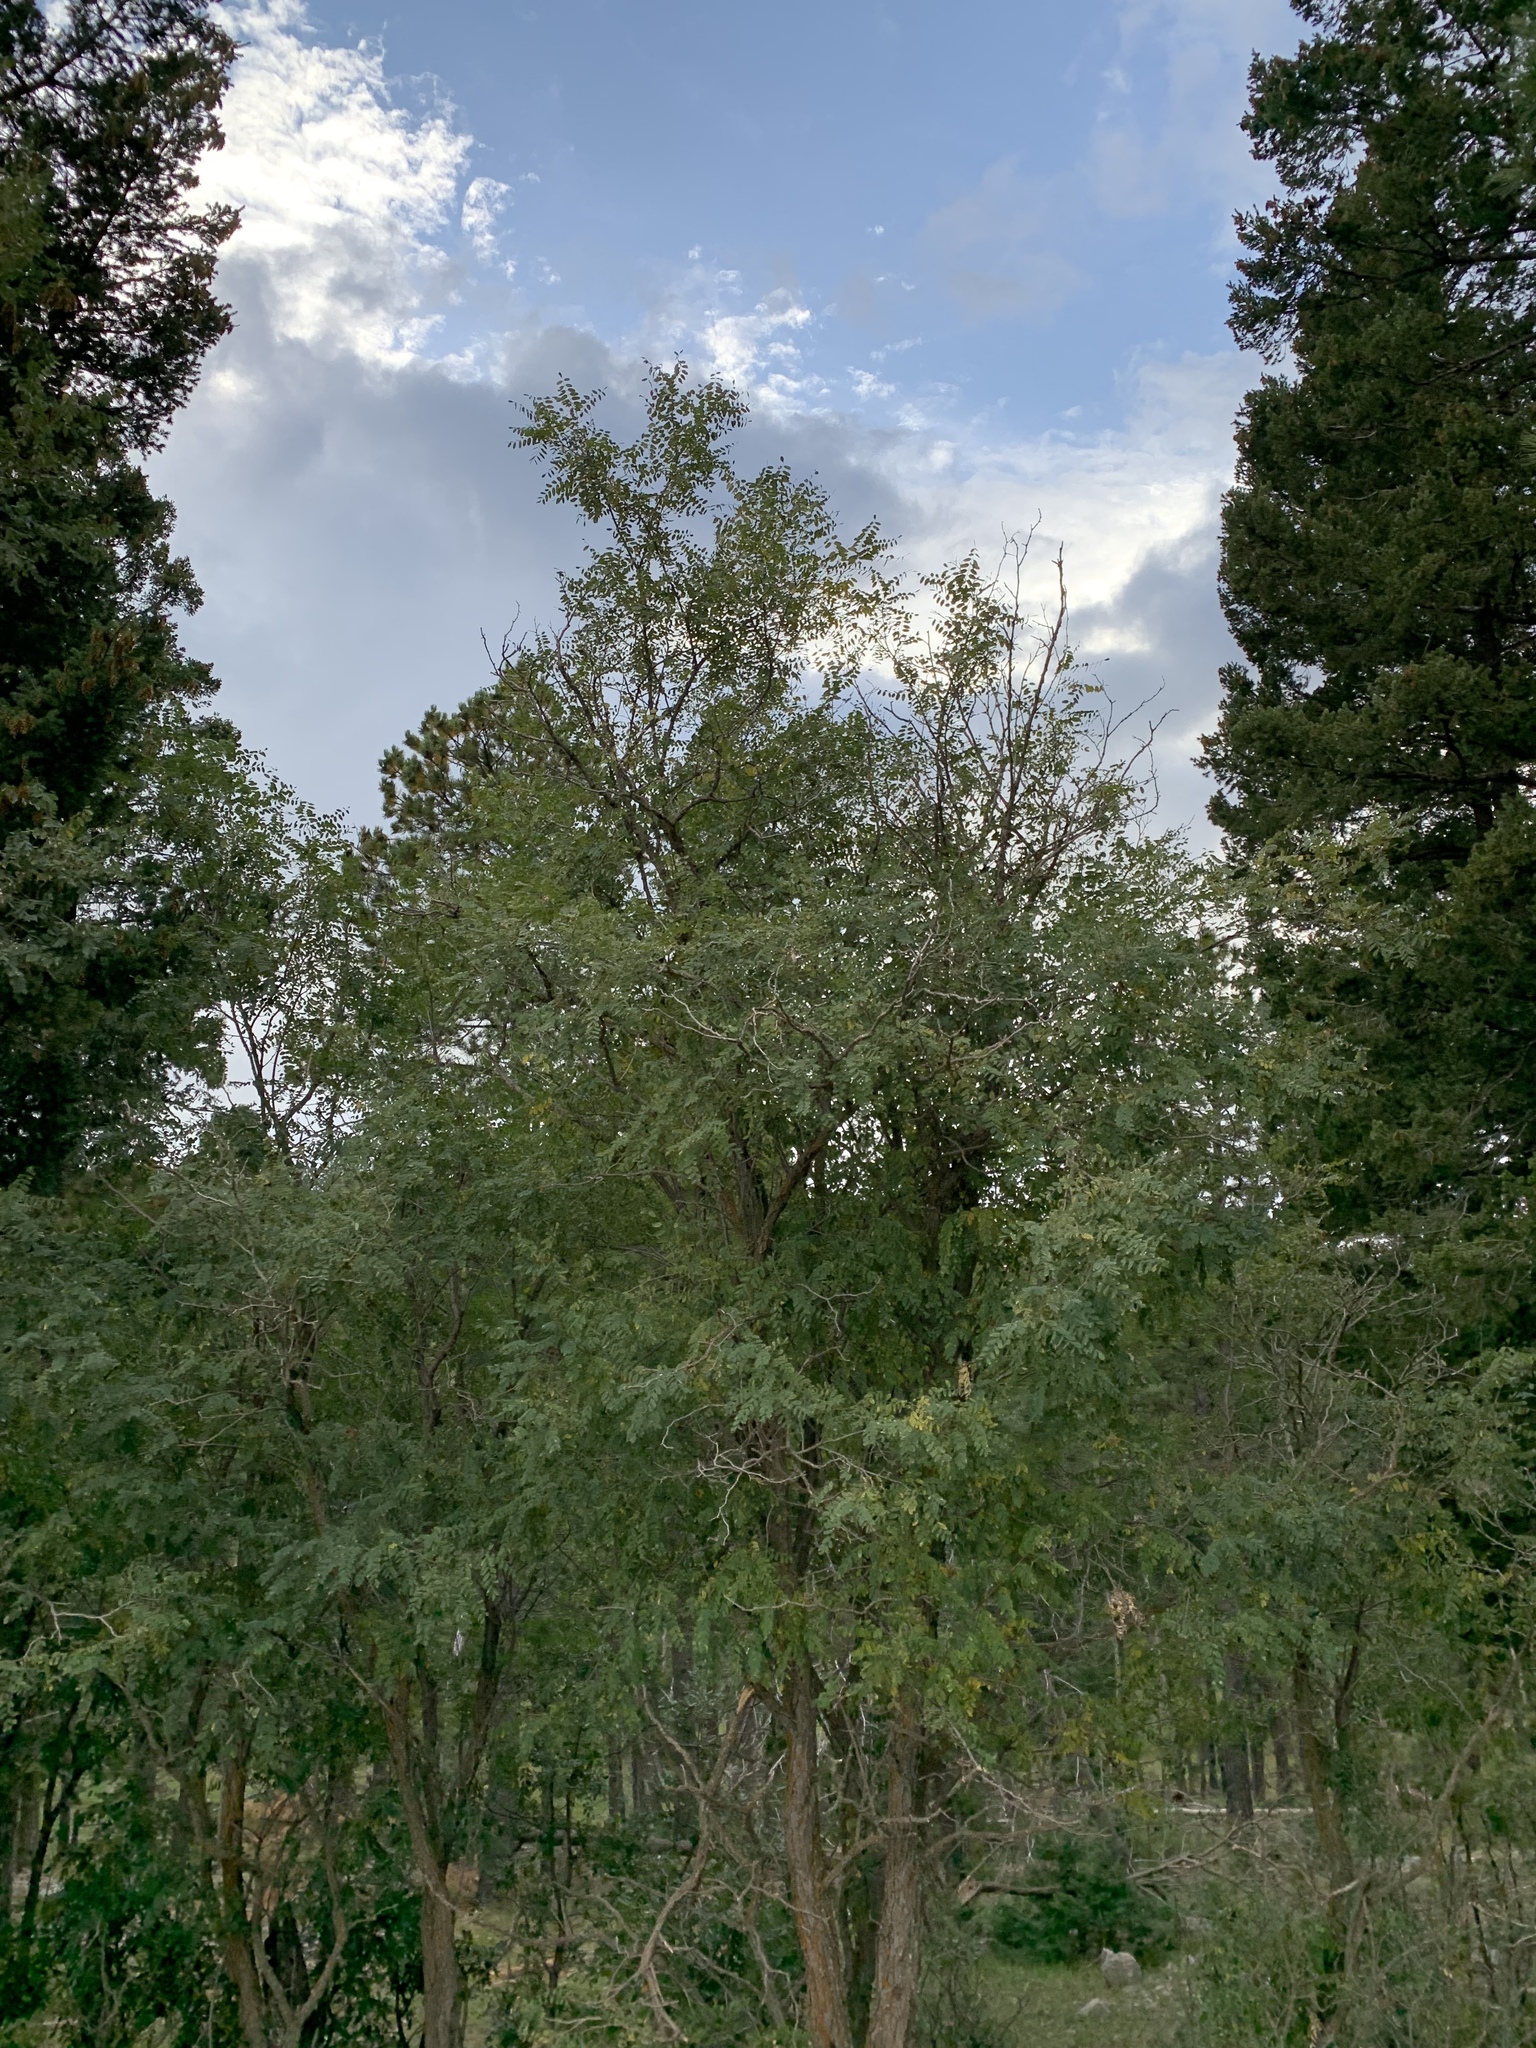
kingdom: Plantae
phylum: Tracheophyta
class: Magnoliopsida
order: Fabales
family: Fabaceae
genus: Robinia
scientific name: Robinia neomexicana
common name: New mexico locust
